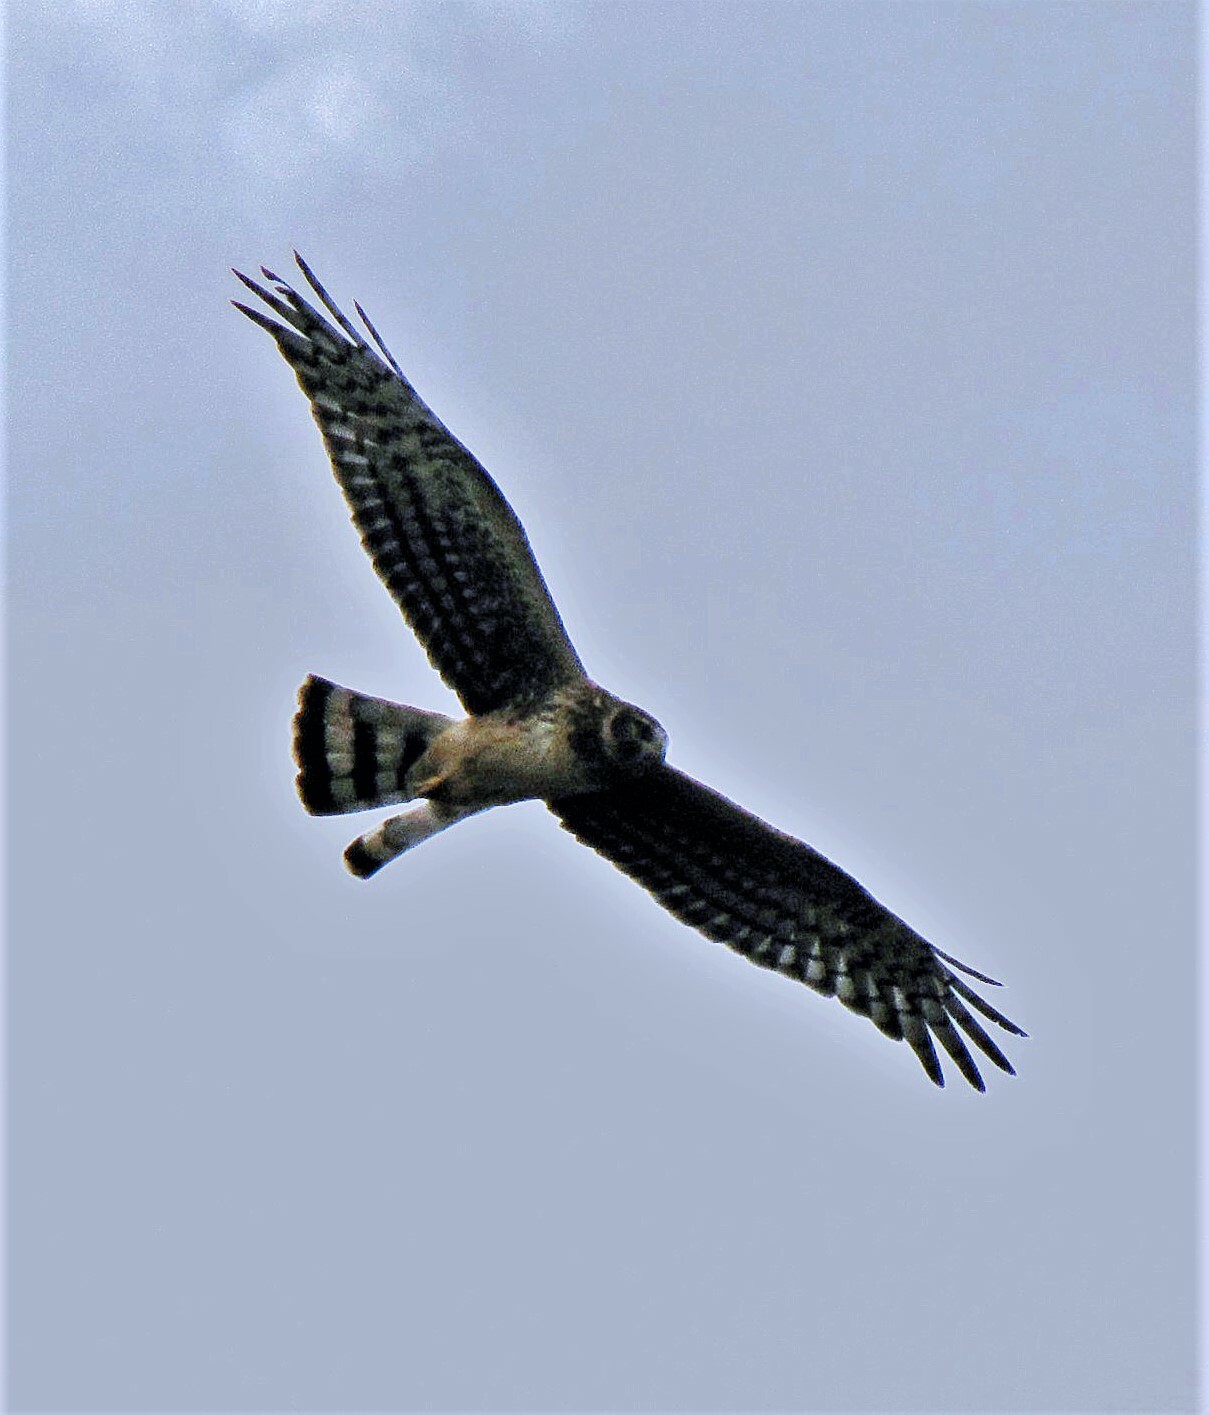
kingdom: Animalia
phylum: Chordata
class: Aves
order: Accipitriformes
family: Accipitridae
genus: Circus
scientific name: Circus buffoni
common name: Long-winged harrier
